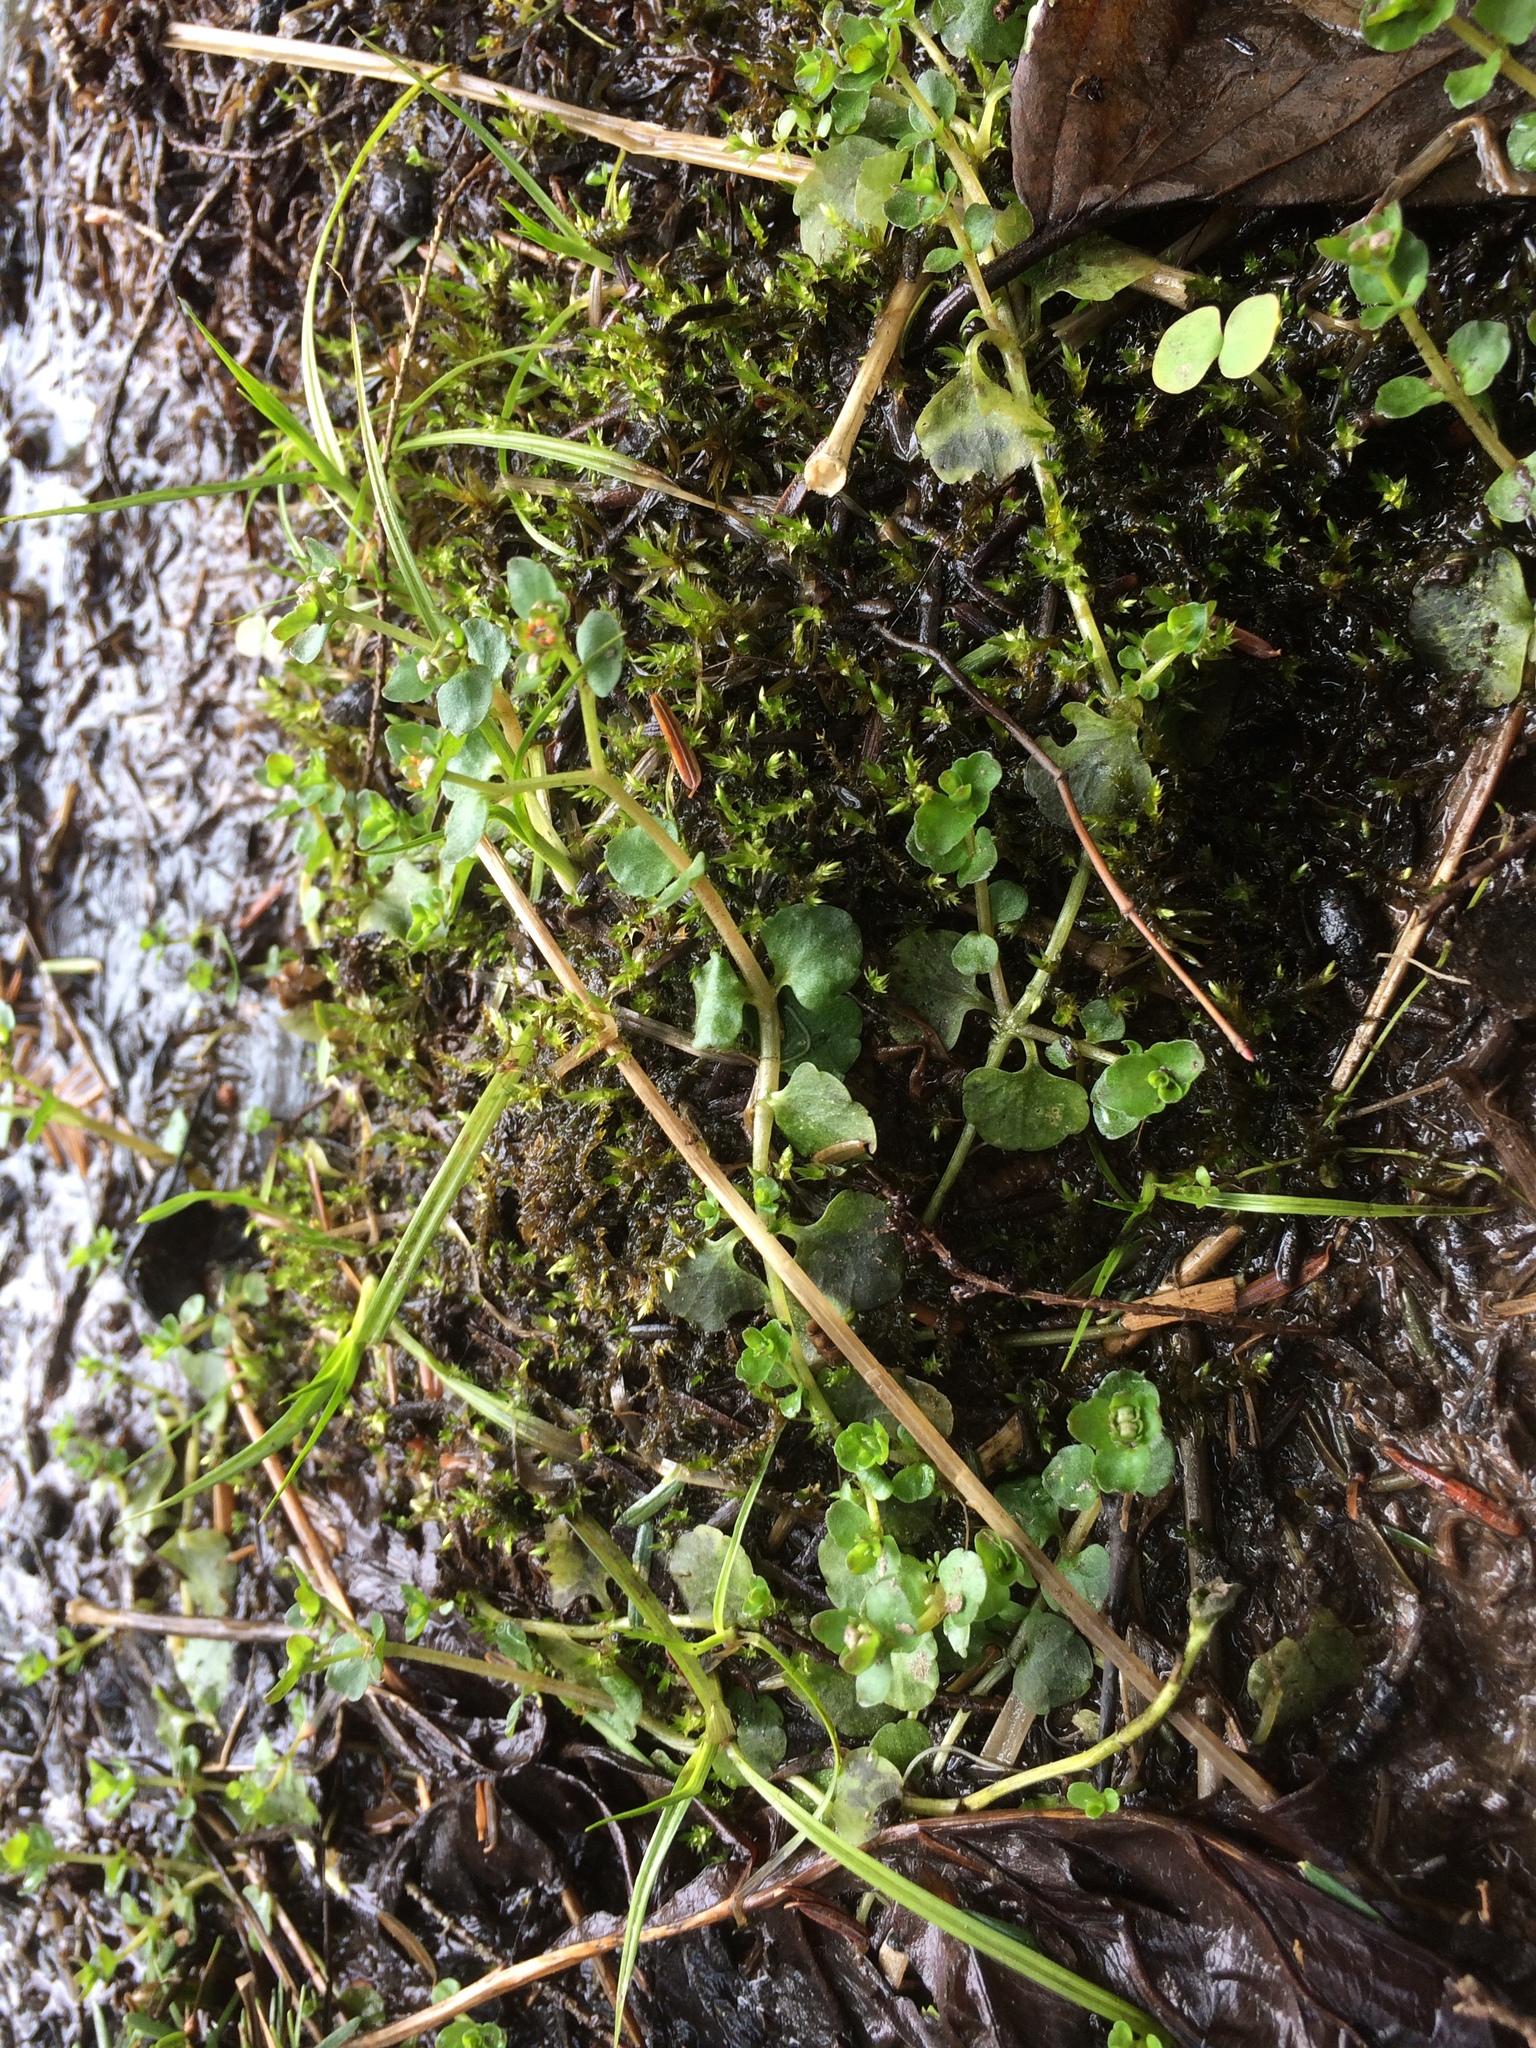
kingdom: Plantae
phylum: Tracheophyta
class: Magnoliopsida
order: Saxifragales
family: Saxifragaceae
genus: Chrysosplenium
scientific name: Chrysosplenium americanum
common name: American golden-saxifrage
